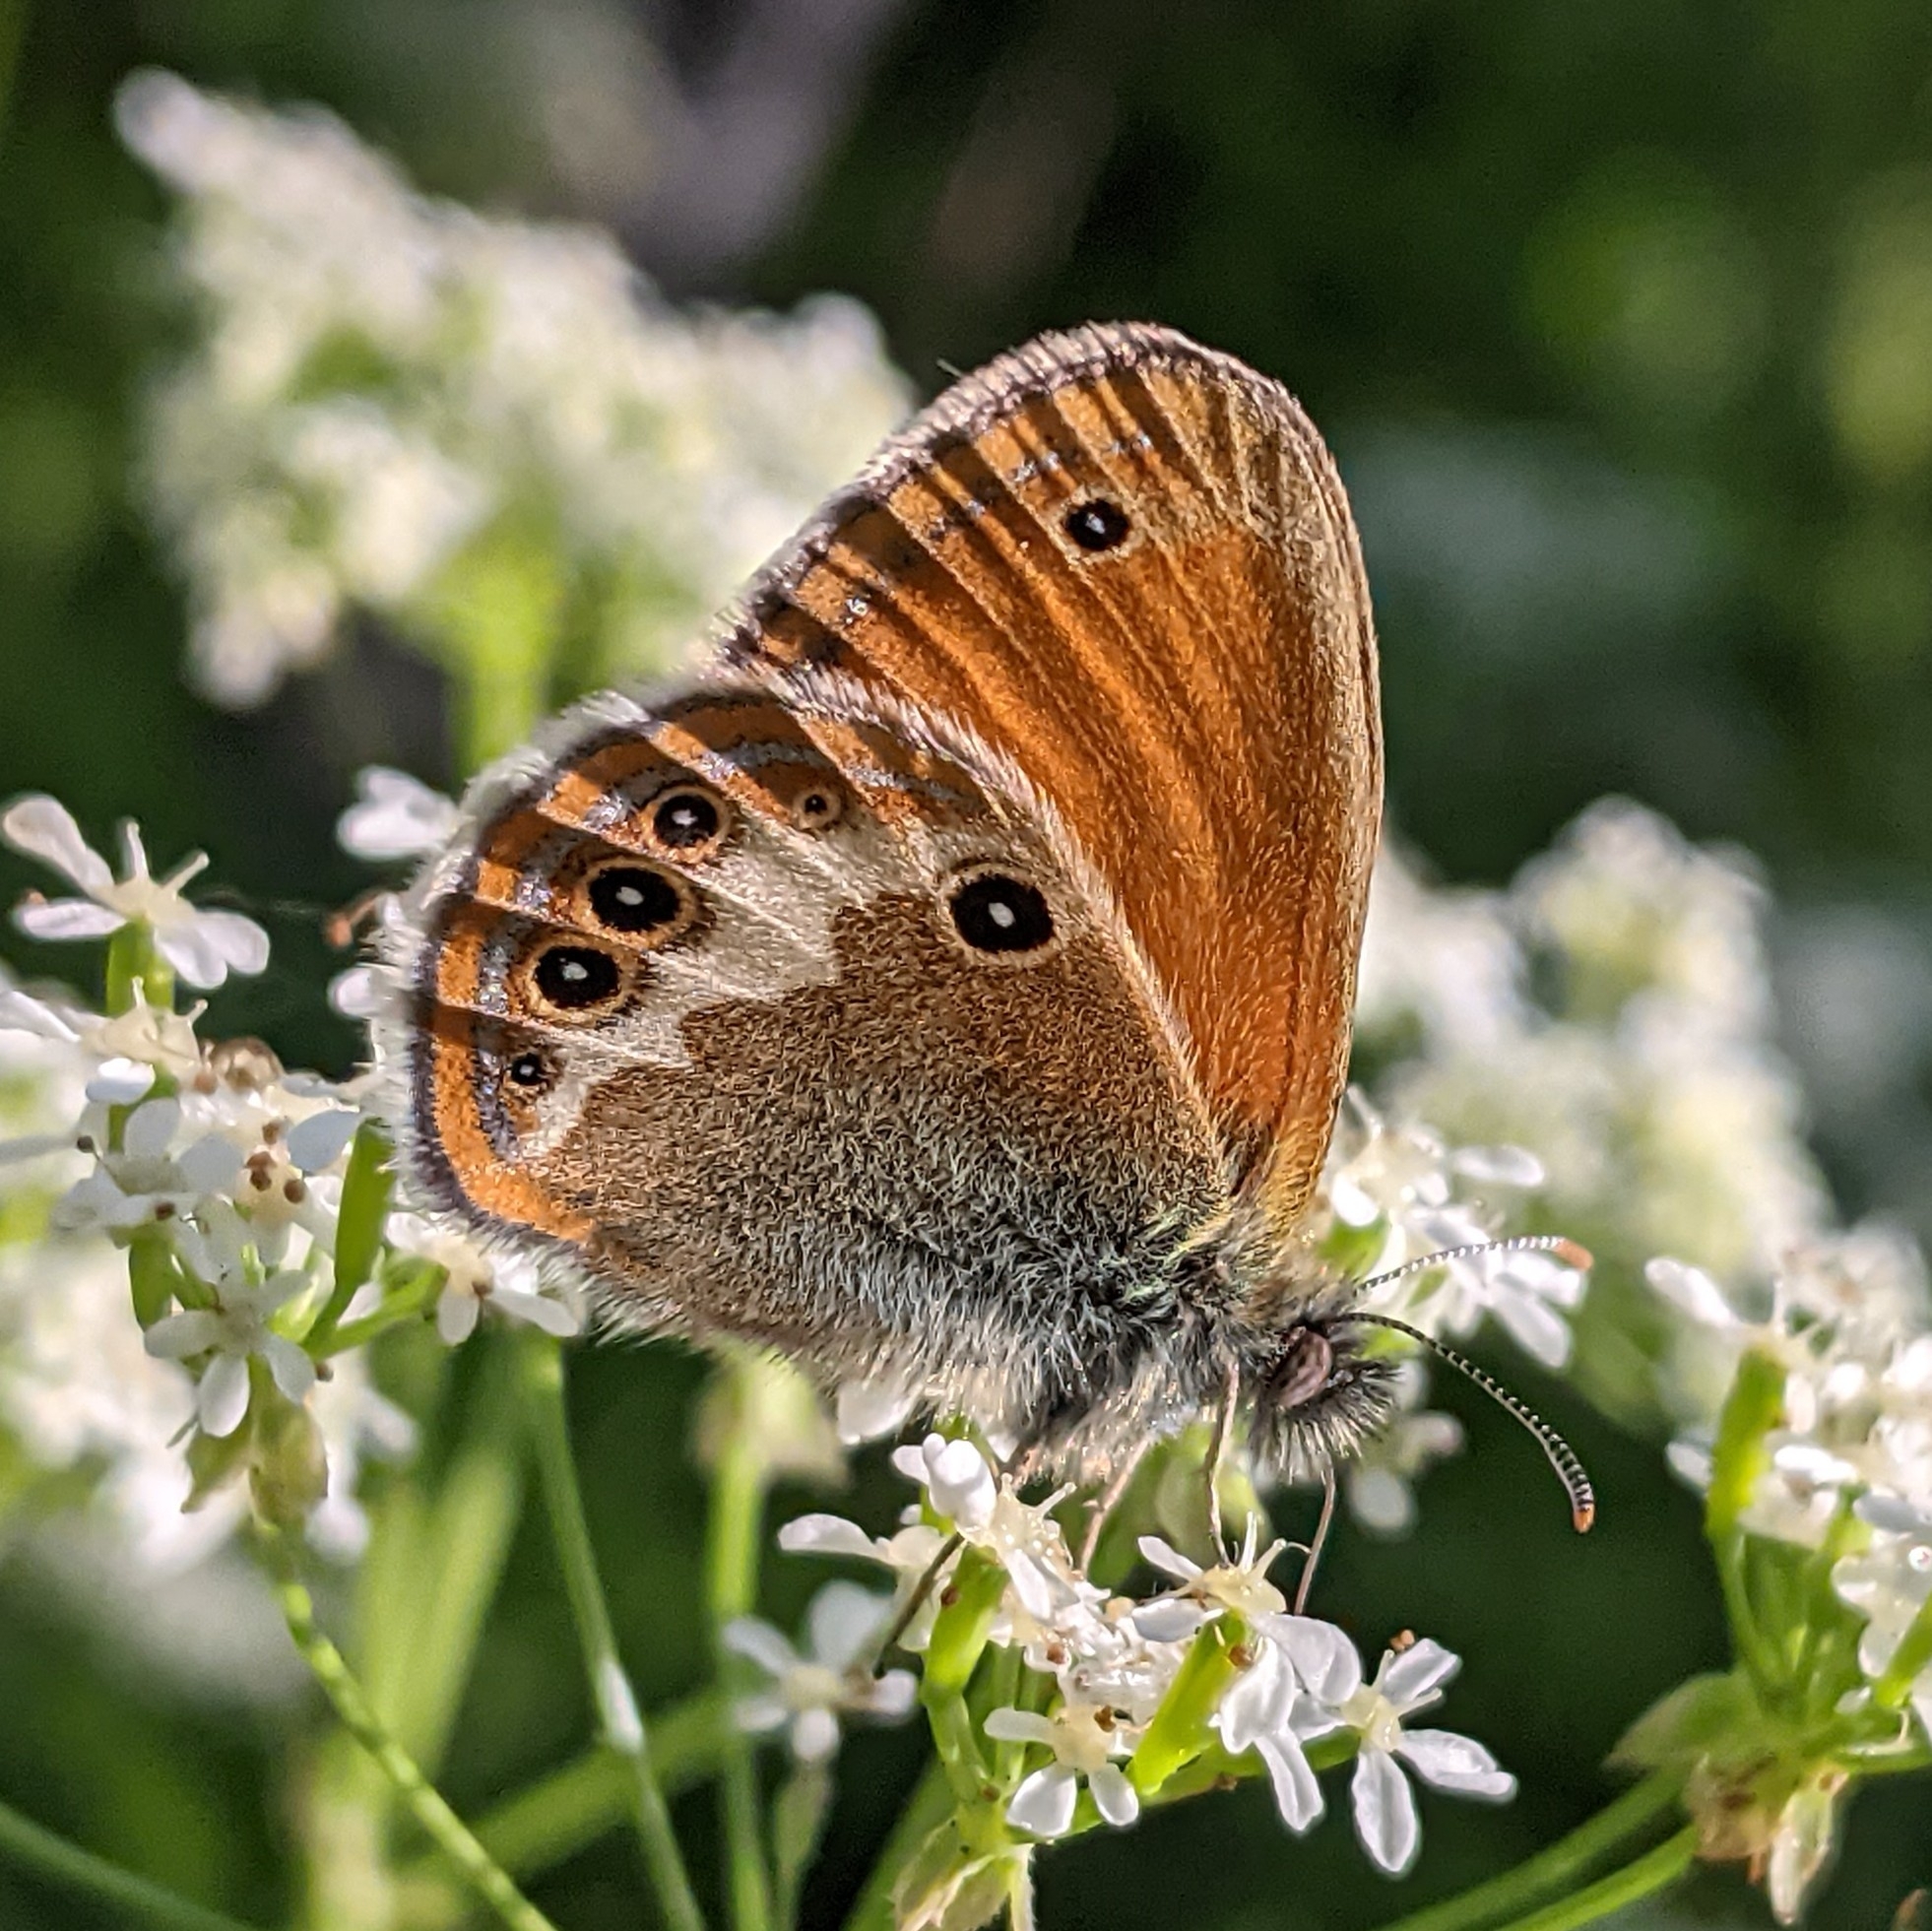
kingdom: Animalia
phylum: Arthropoda
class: Insecta
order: Lepidoptera
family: Nymphalidae
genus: Coenonympha
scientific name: Coenonympha arcania
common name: Pearly heath
